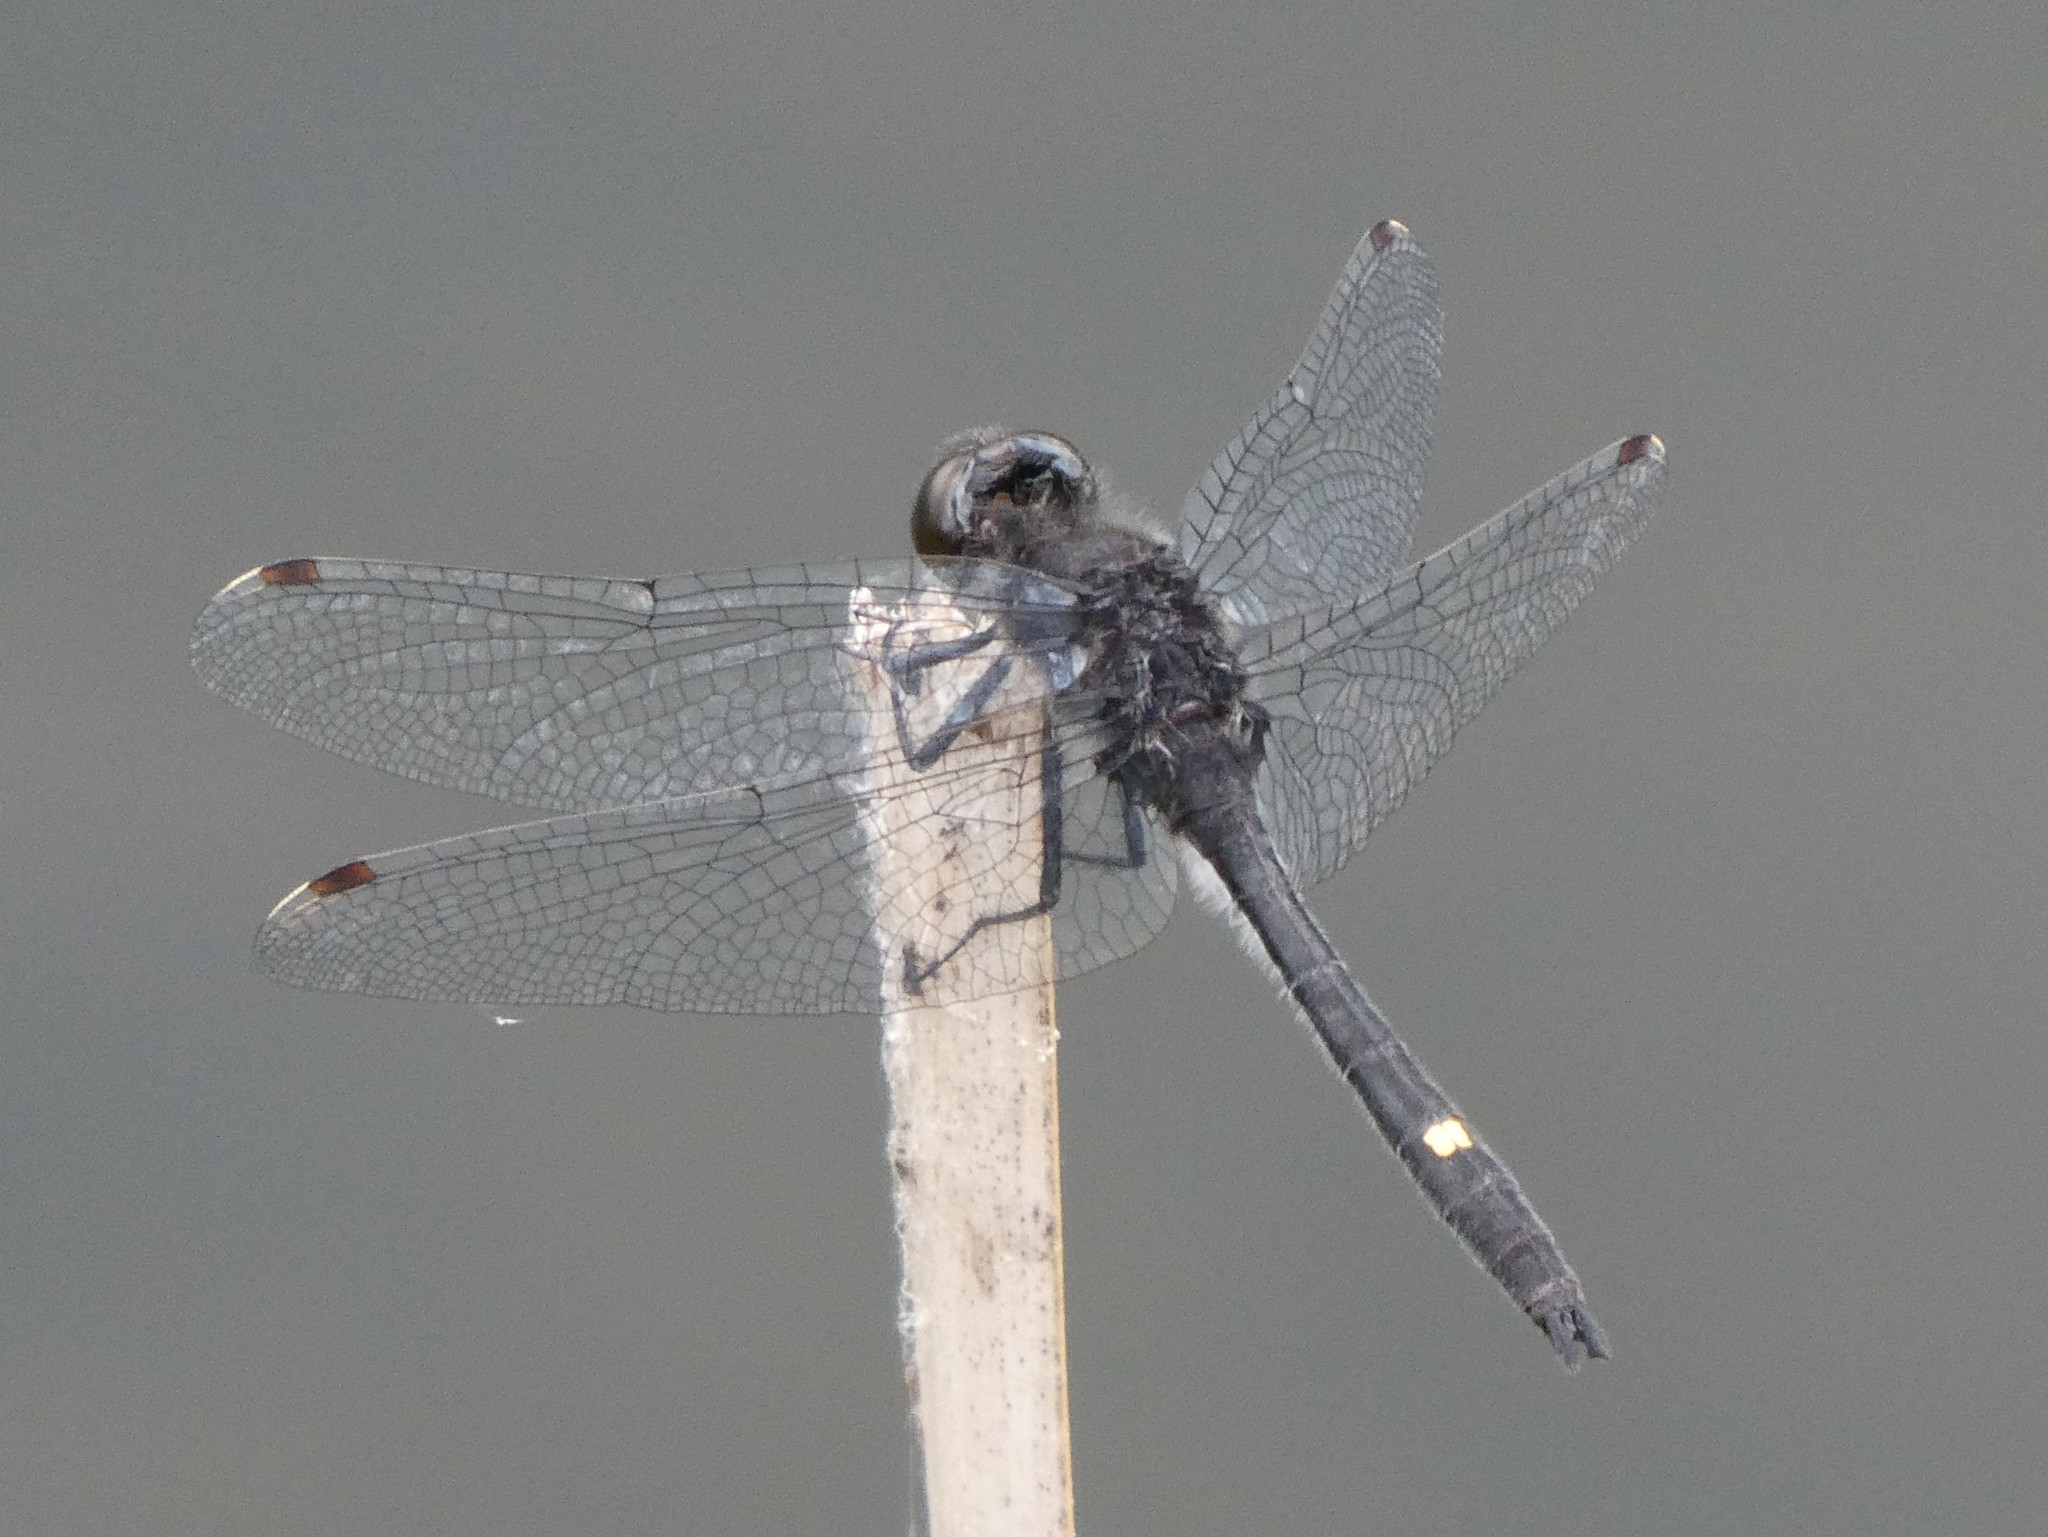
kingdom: Animalia
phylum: Arthropoda
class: Insecta
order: Odonata
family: Libellulidae
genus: Leucorrhinia
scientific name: Leucorrhinia intacta
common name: Dot-tailed whiteface
